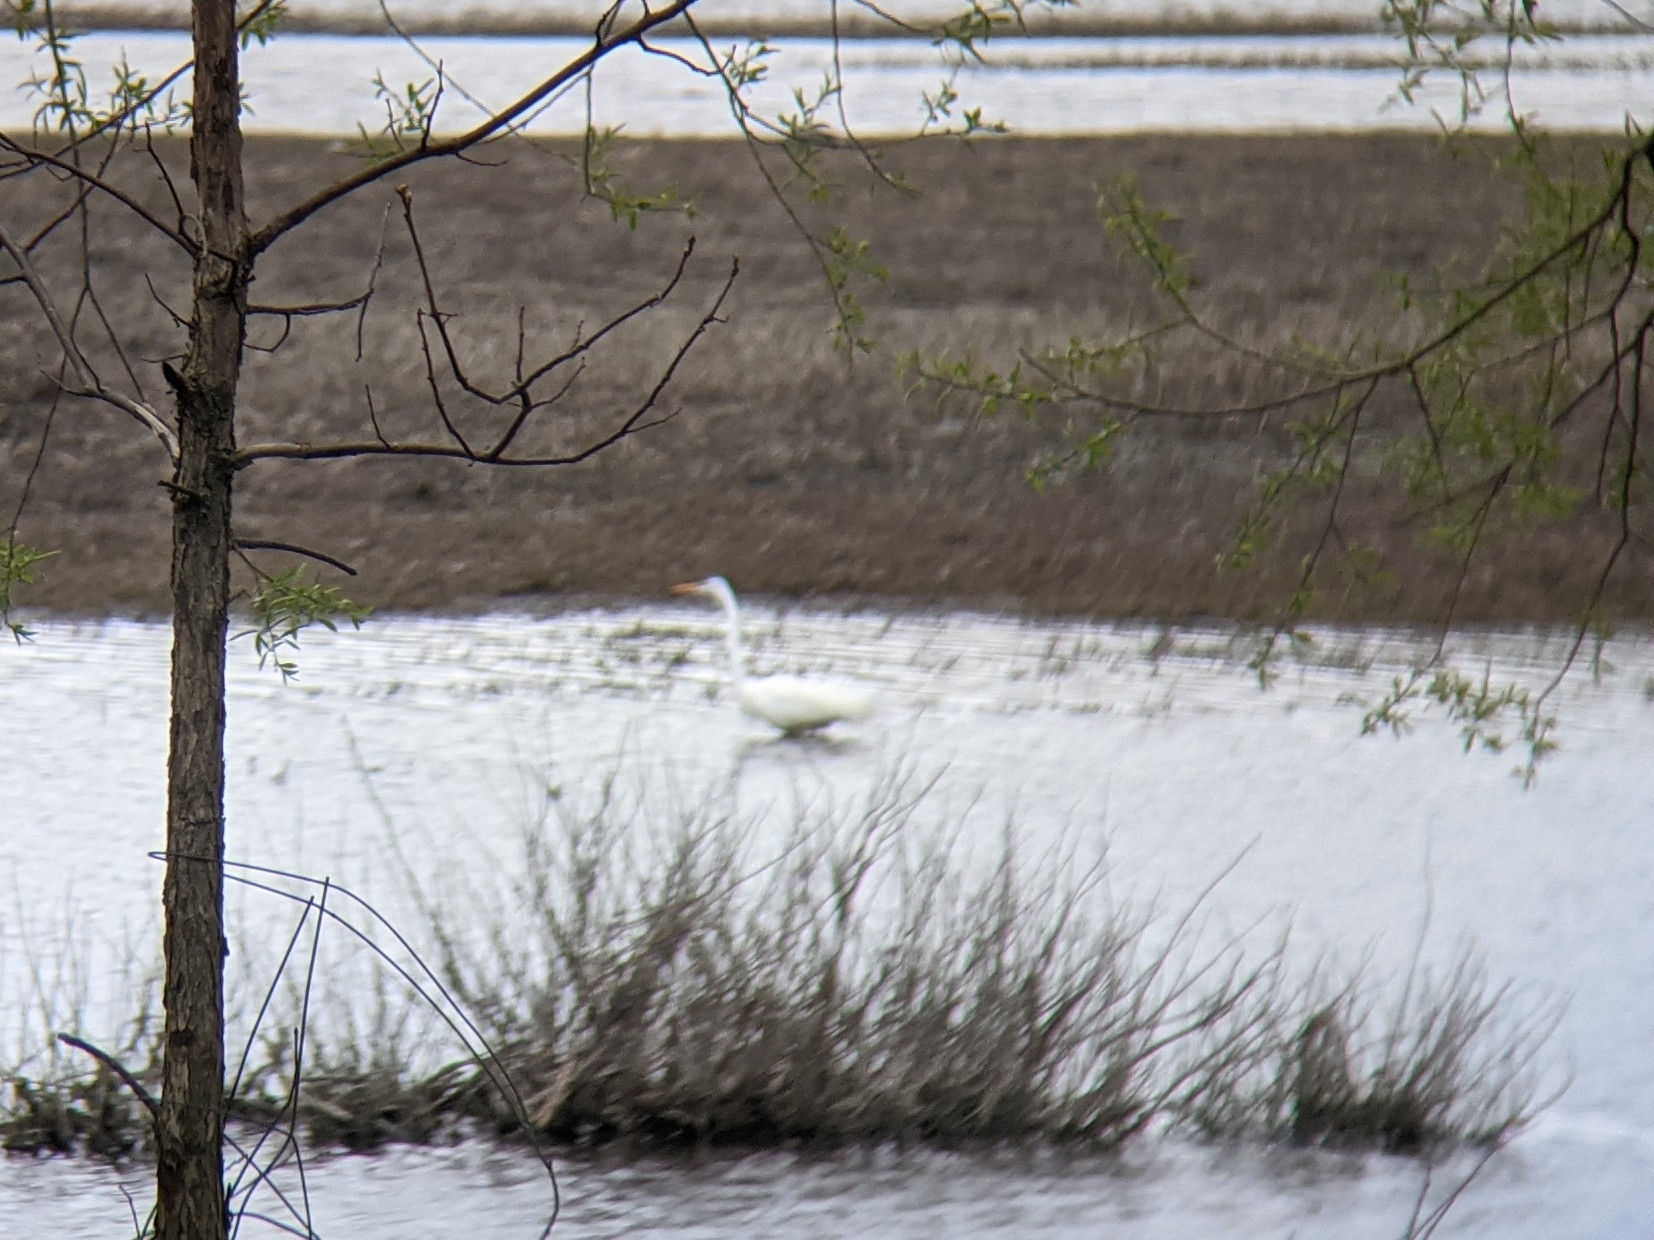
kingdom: Animalia
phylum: Chordata
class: Aves
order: Pelecaniformes
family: Ardeidae
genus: Ardea
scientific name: Ardea alba
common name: Great egret
